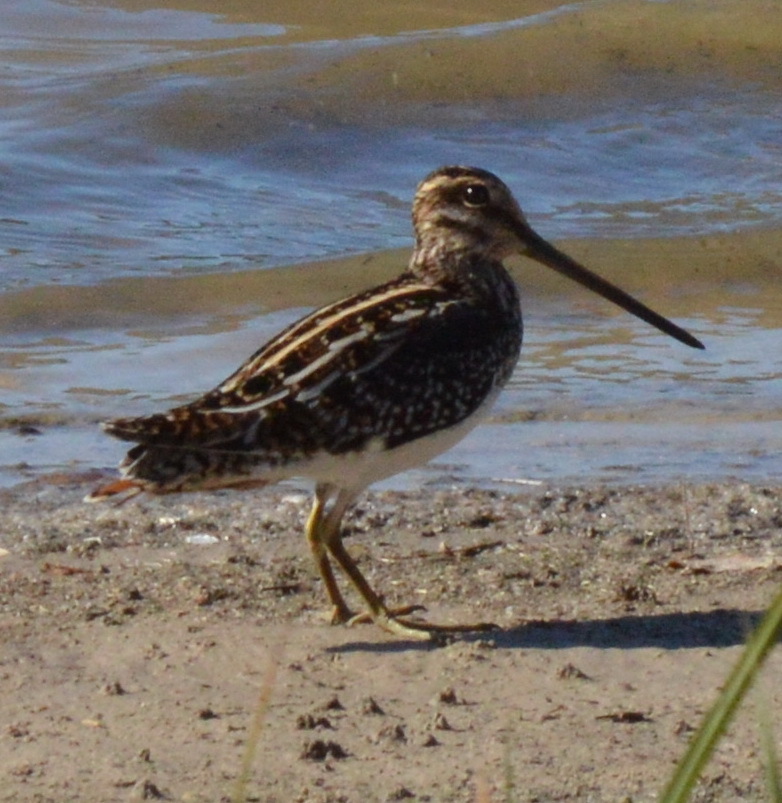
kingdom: Animalia
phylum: Chordata
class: Aves
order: Charadriiformes
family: Scolopacidae
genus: Gallinago
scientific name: Gallinago delicata
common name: Wilson's snipe
